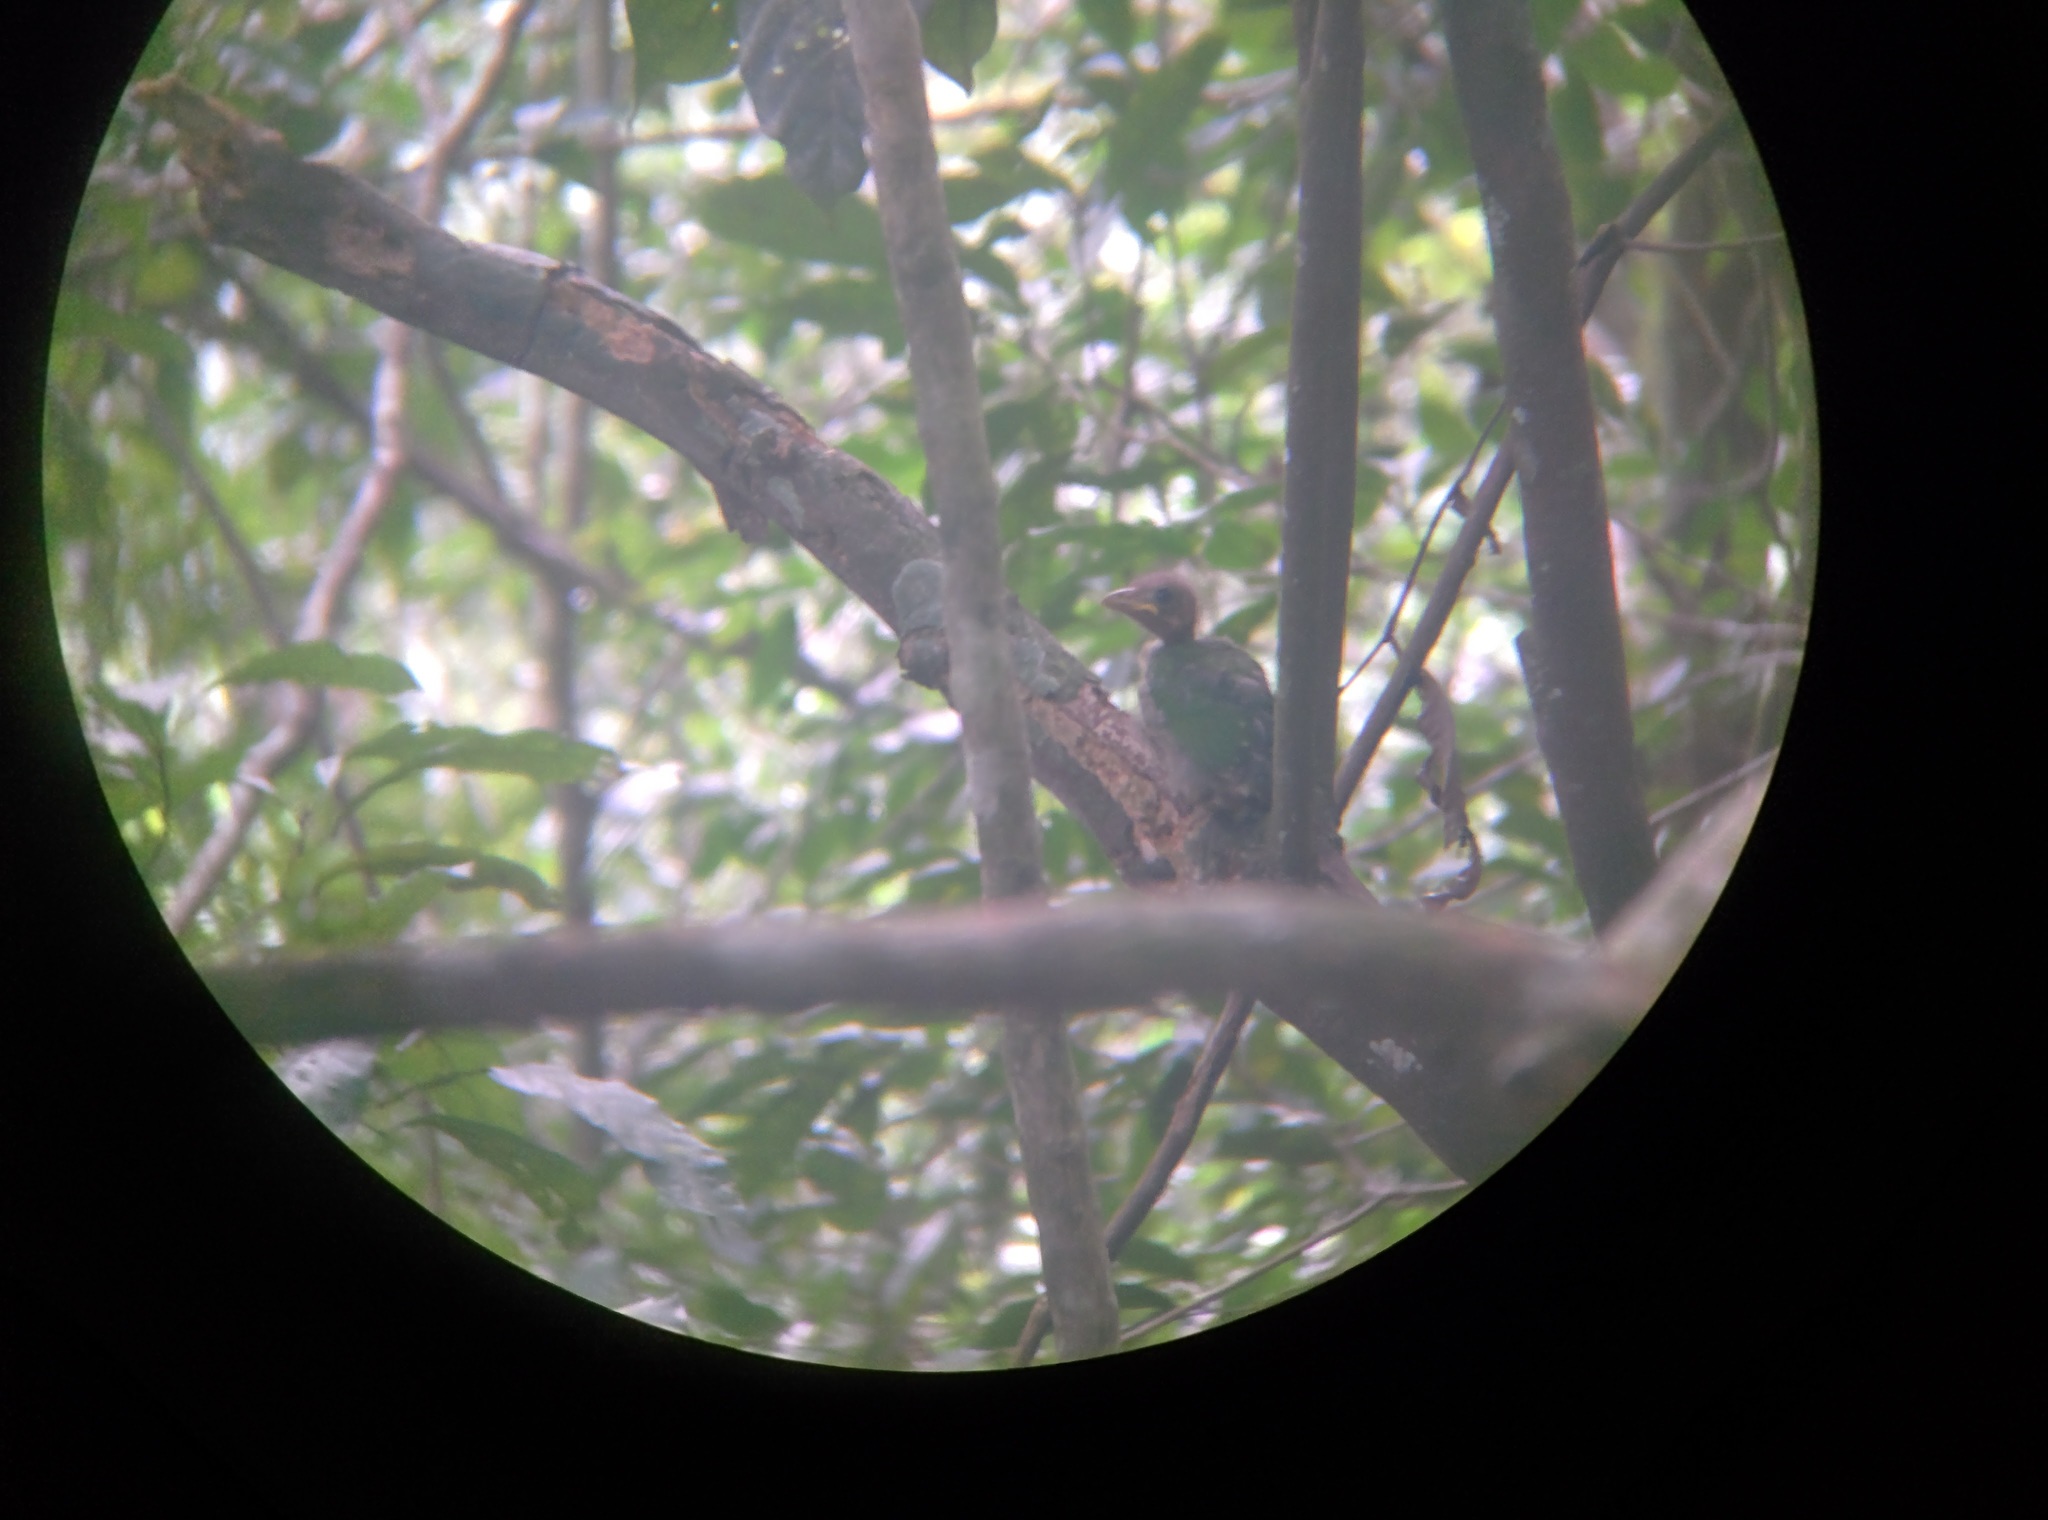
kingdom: Animalia
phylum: Chordata
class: Aves
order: Passeriformes
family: Ptilonorhynchidae
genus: Ailuroedus
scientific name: Ailuroedus maculosus
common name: Spotted catbird
